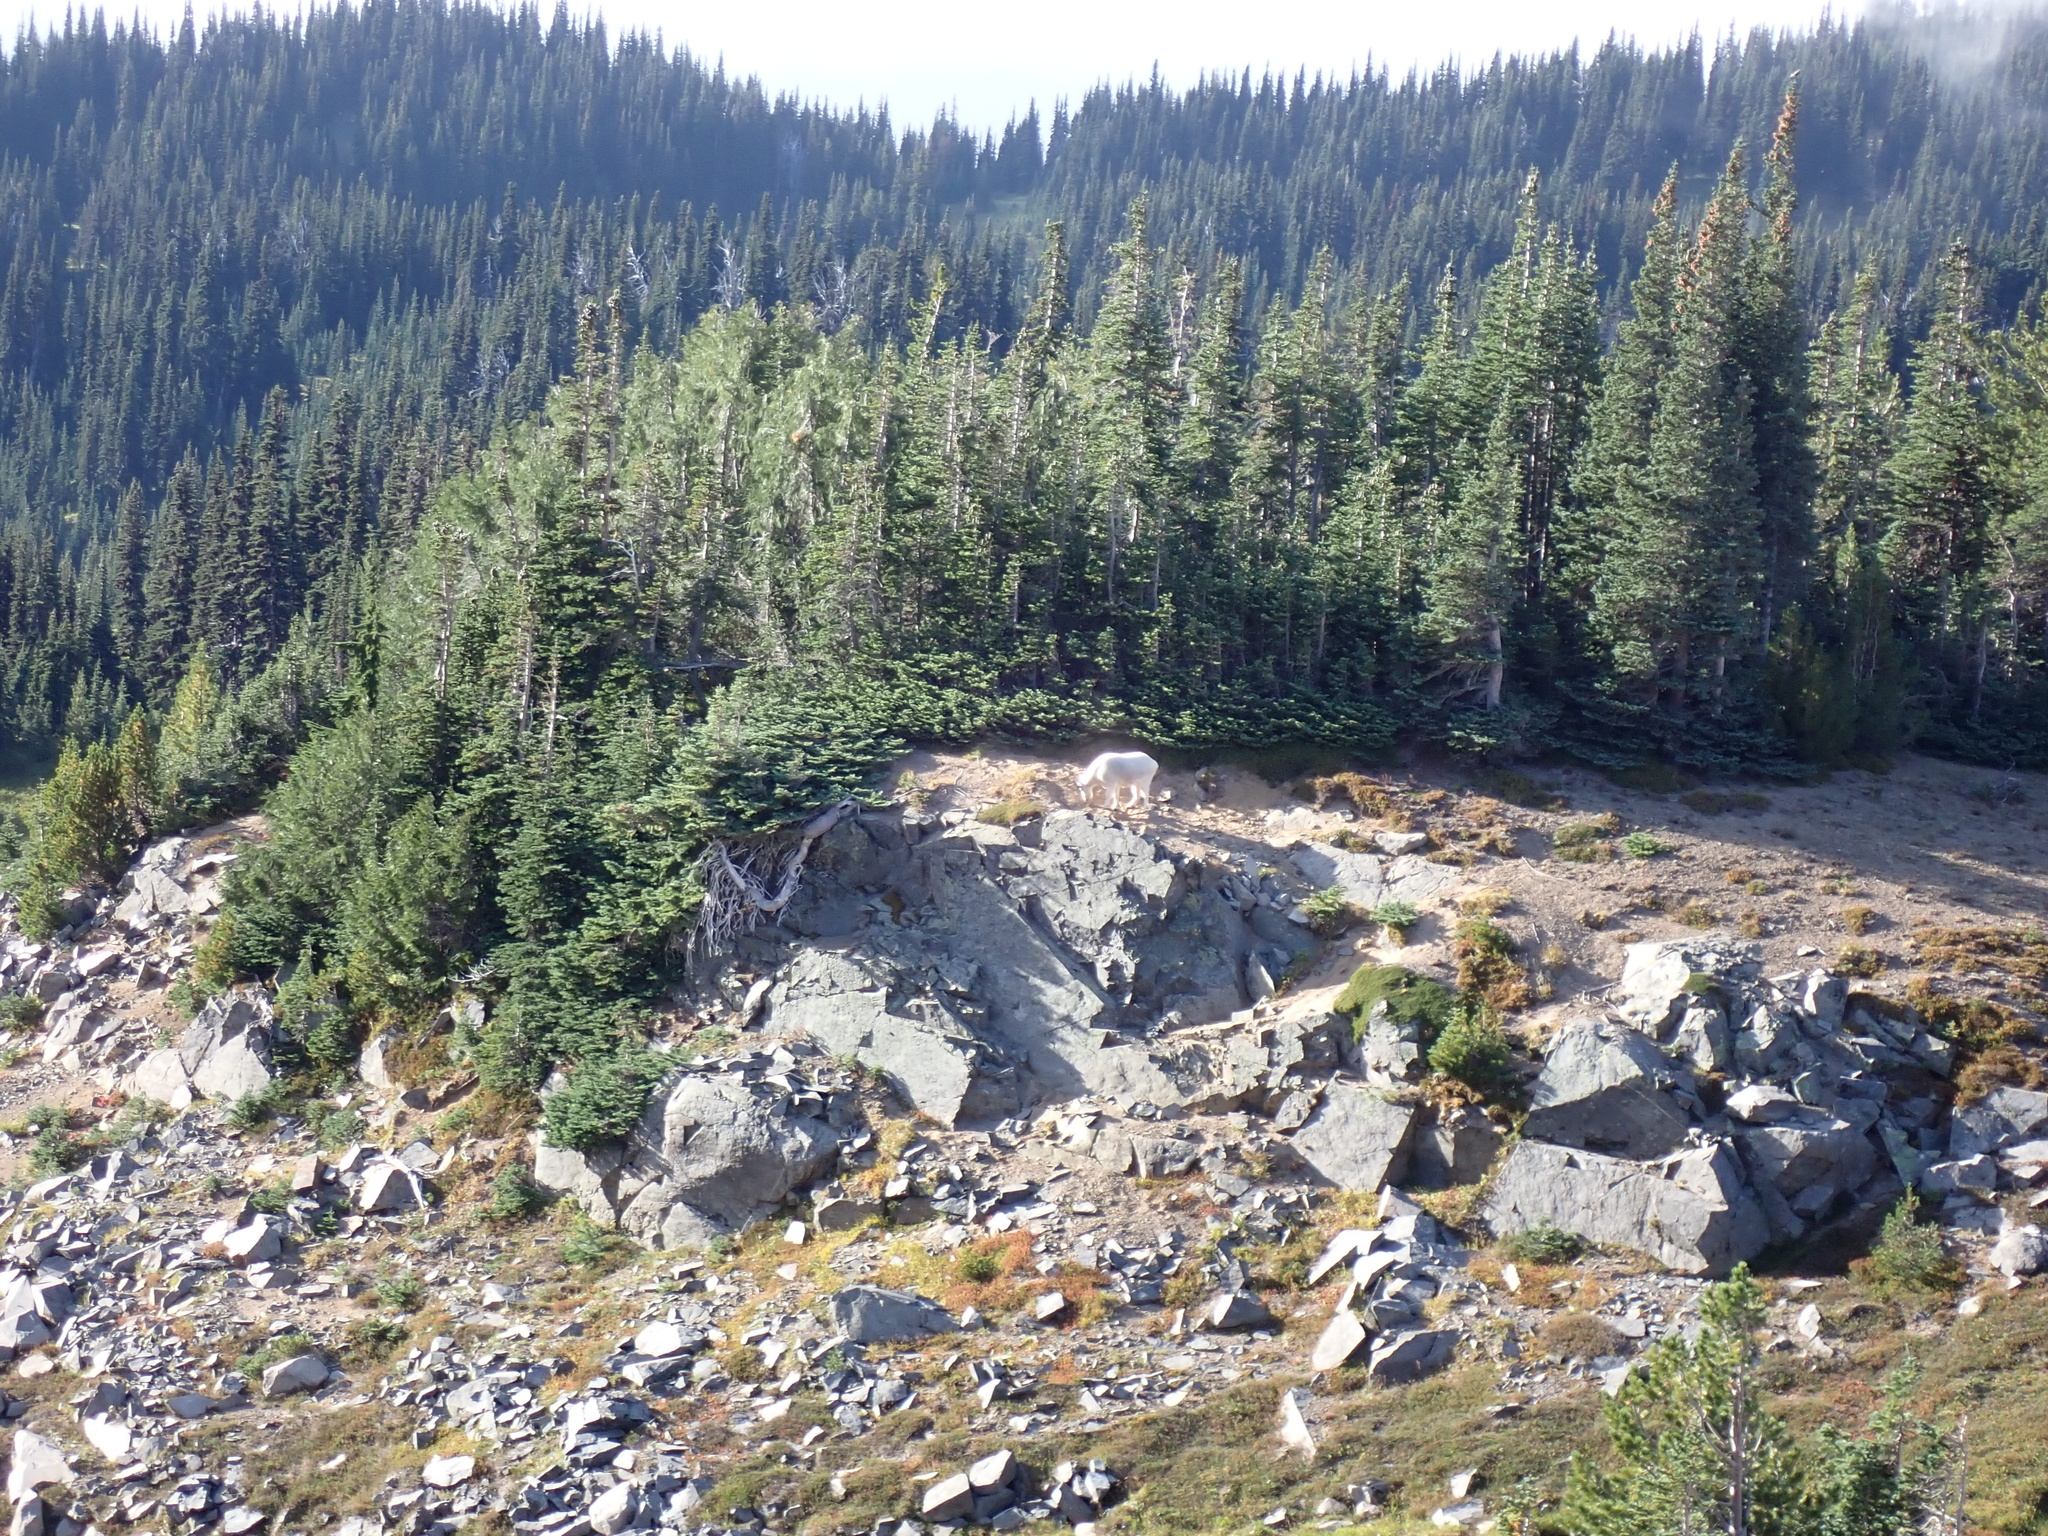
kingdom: Animalia
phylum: Chordata
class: Mammalia
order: Artiodactyla
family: Bovidae
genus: Oreamnos
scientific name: Oreamnos americanus
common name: Mountain goat
